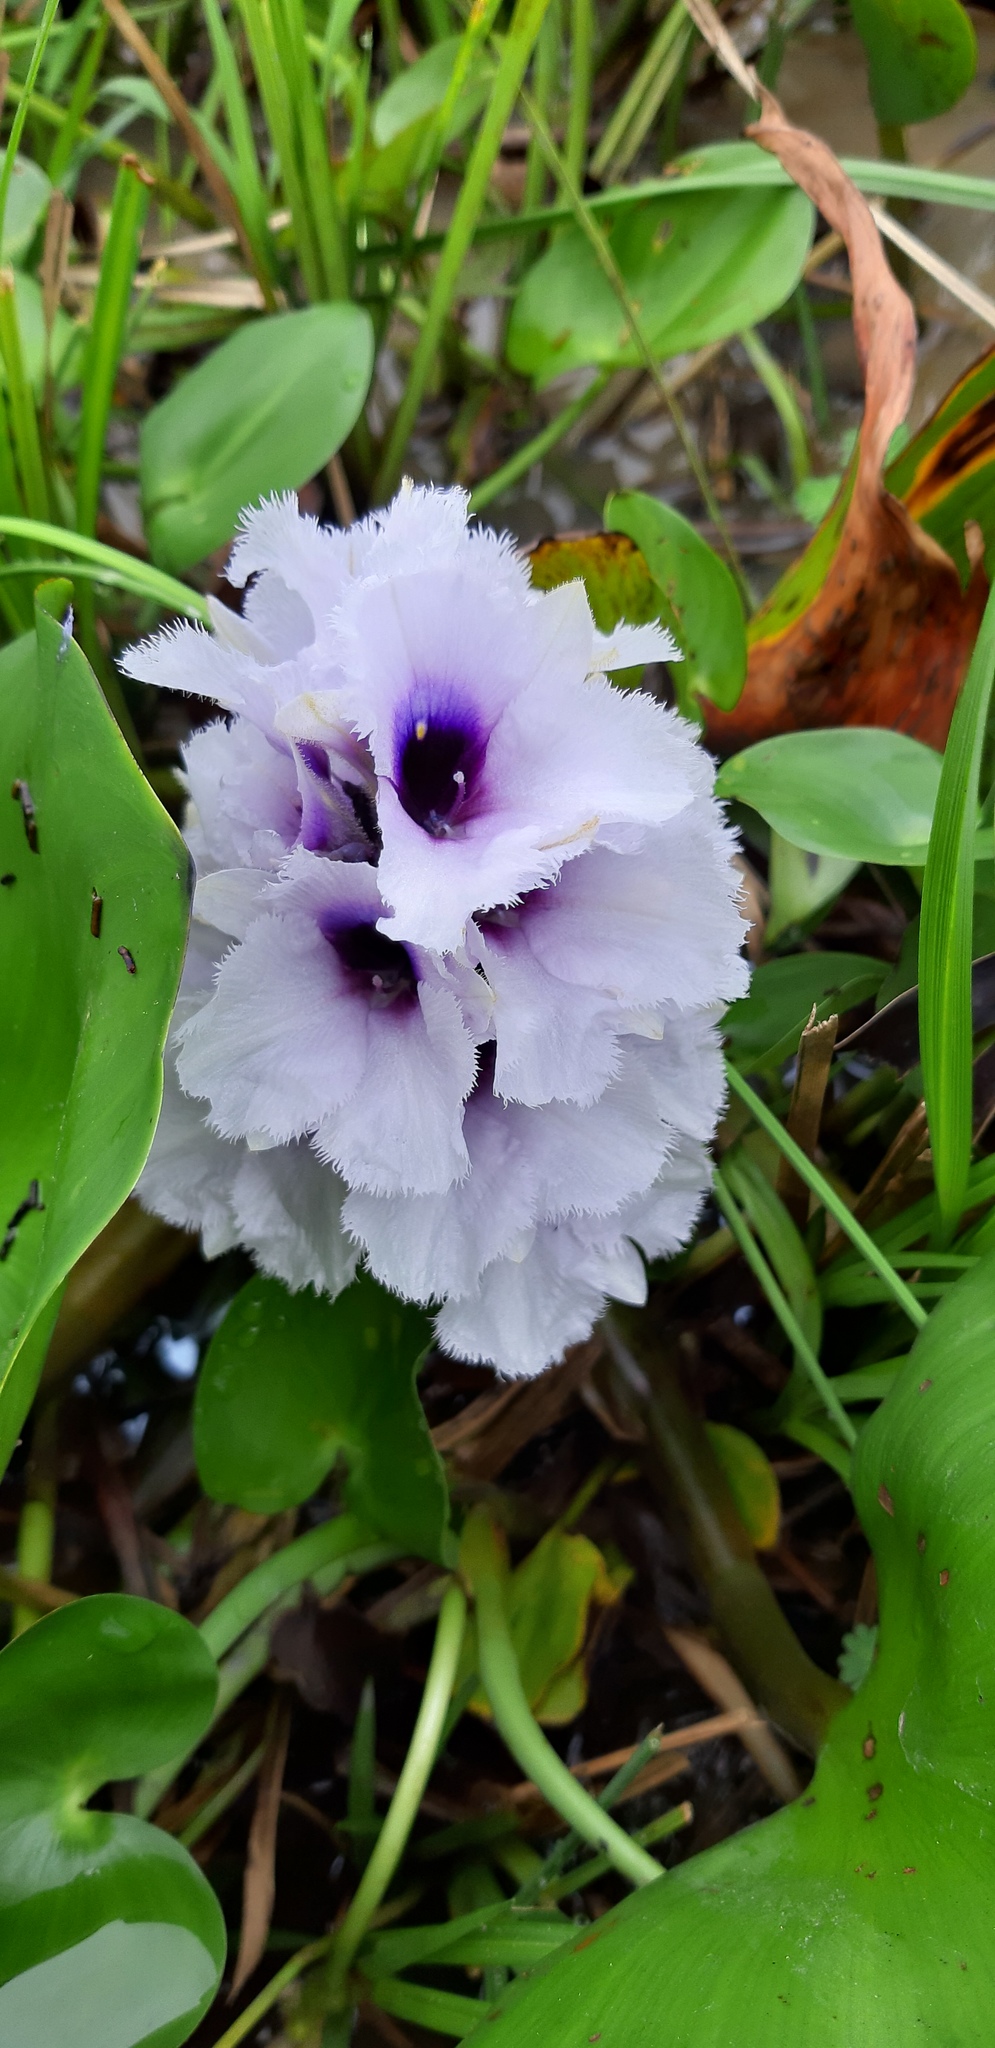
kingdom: Plantae
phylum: Tracheophyta
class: Liliopsida
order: Commelinales
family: Pontederiaceae
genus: Pontederia
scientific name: Pontederia azurea
